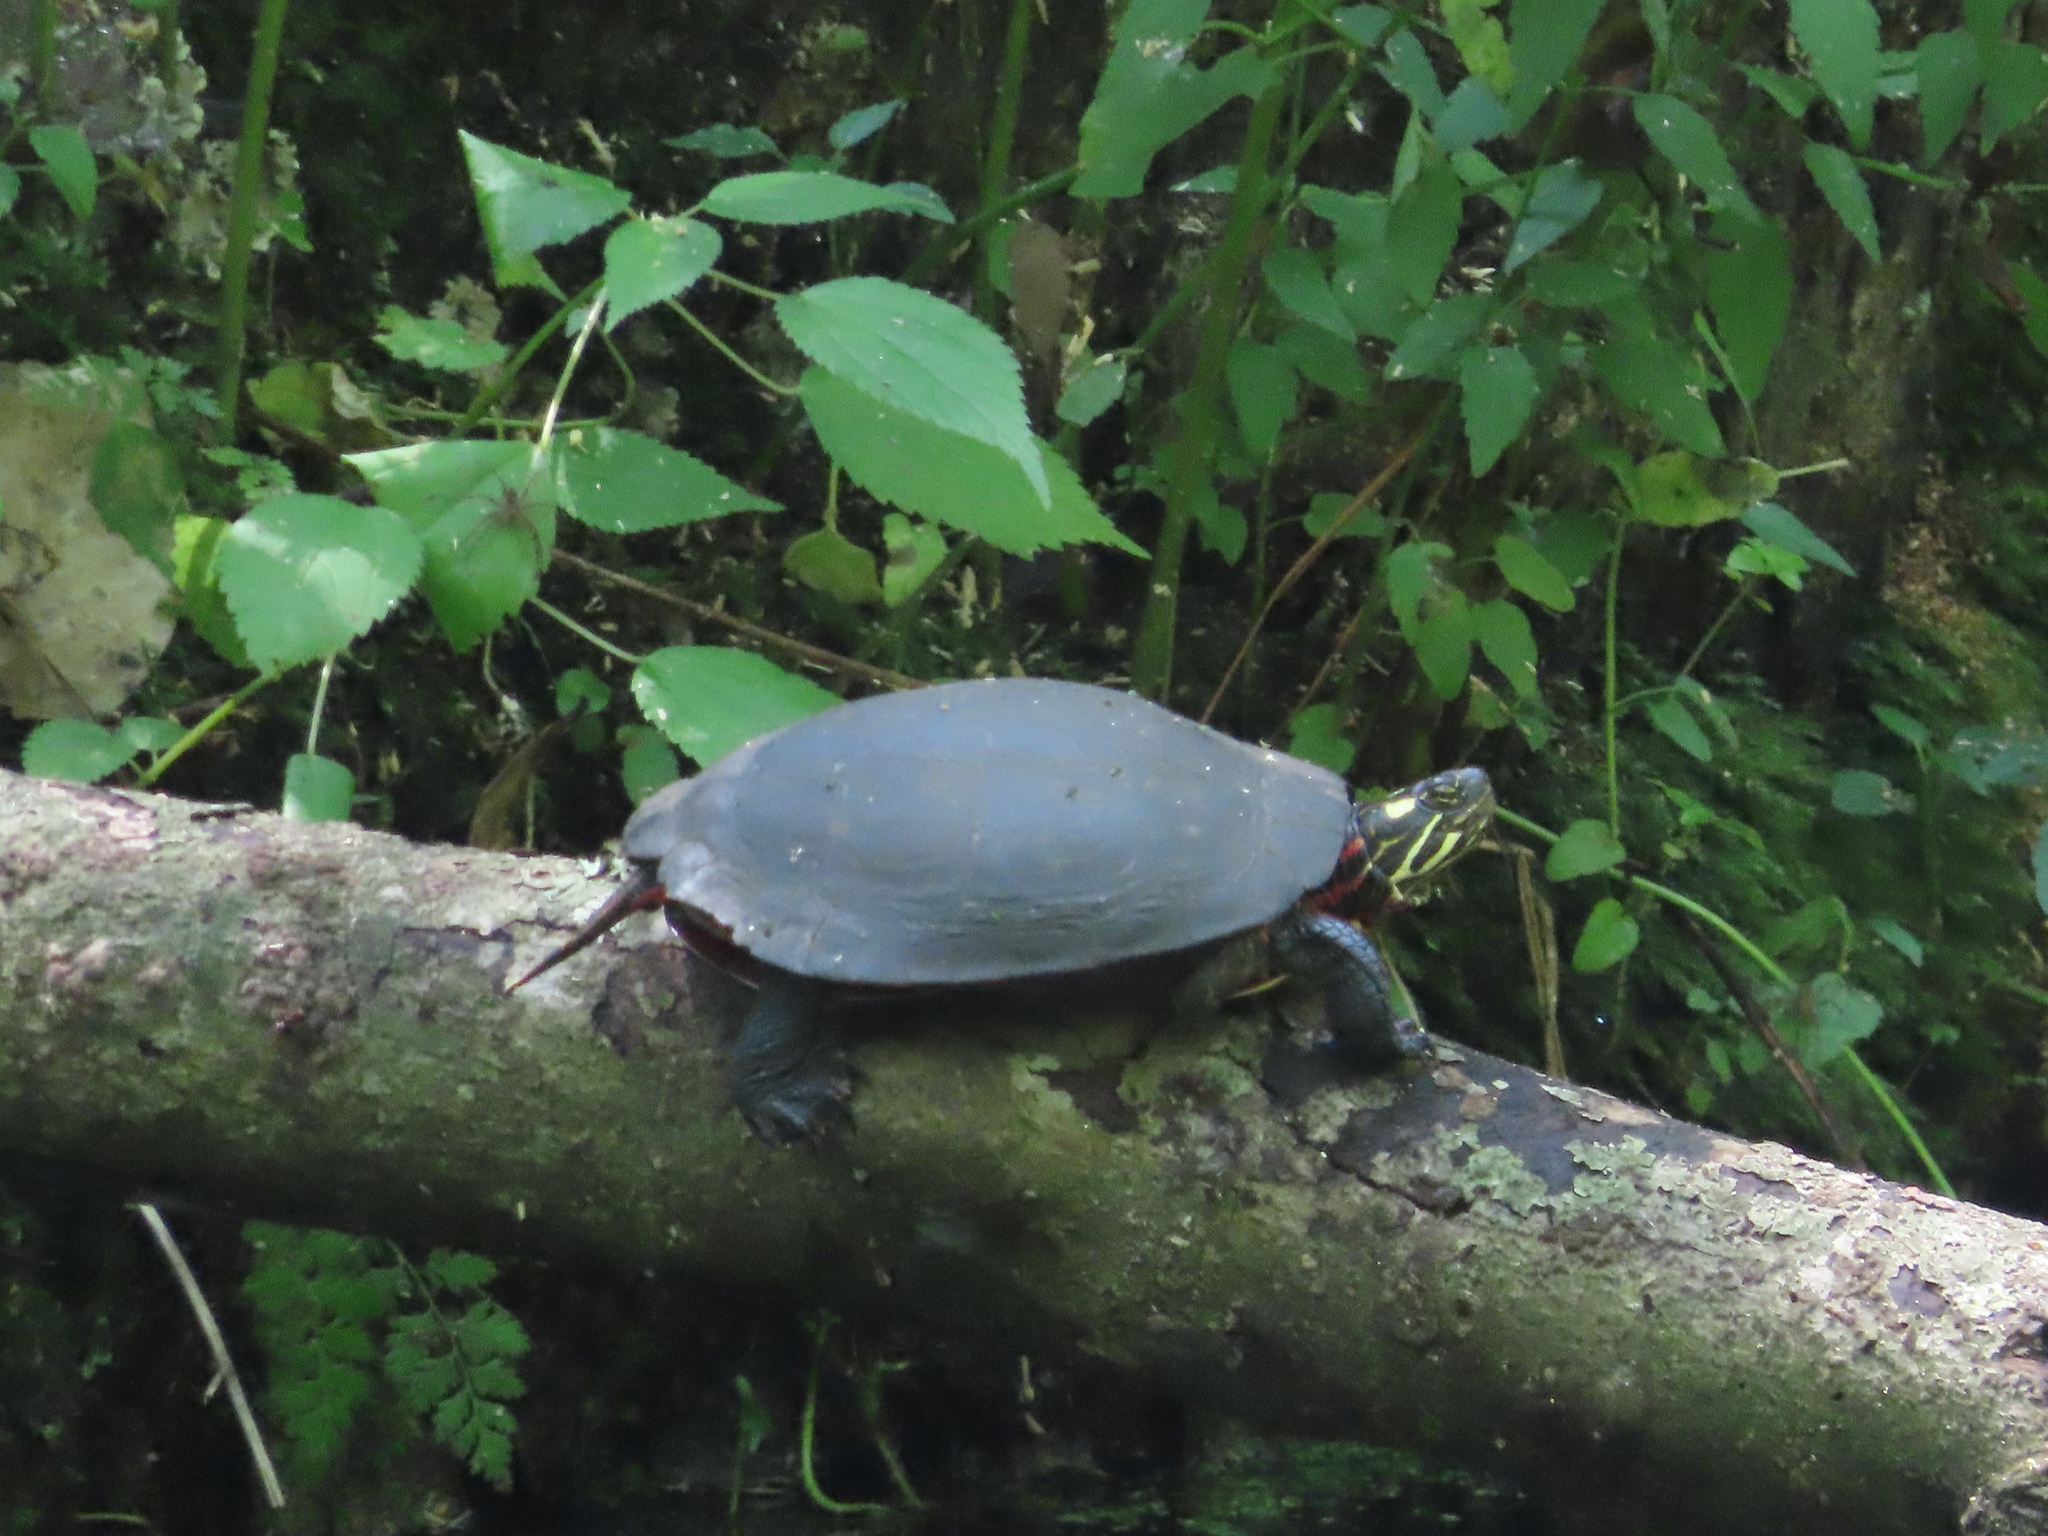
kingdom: Animalia
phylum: Chordata
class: Testudines
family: Emydidae
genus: Chrysemys
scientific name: Chrysemys picta
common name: Painted turtle
